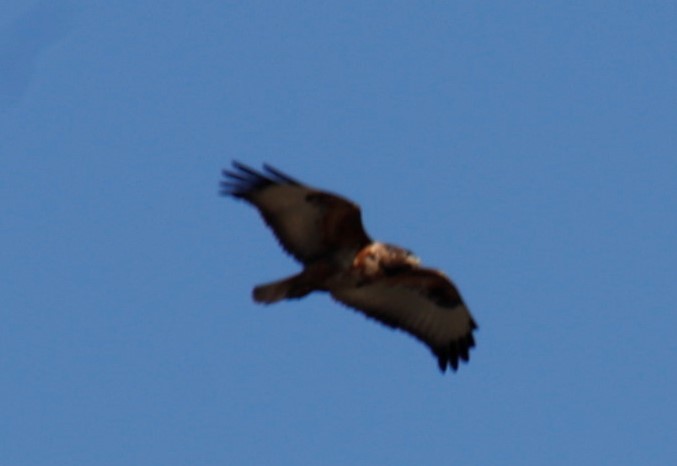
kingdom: Animalia
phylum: Chordata
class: Aves
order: Accipitriformes
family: Accipitridae
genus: Buteo
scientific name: Buteo rufofuscus
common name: Jackal buzzard
